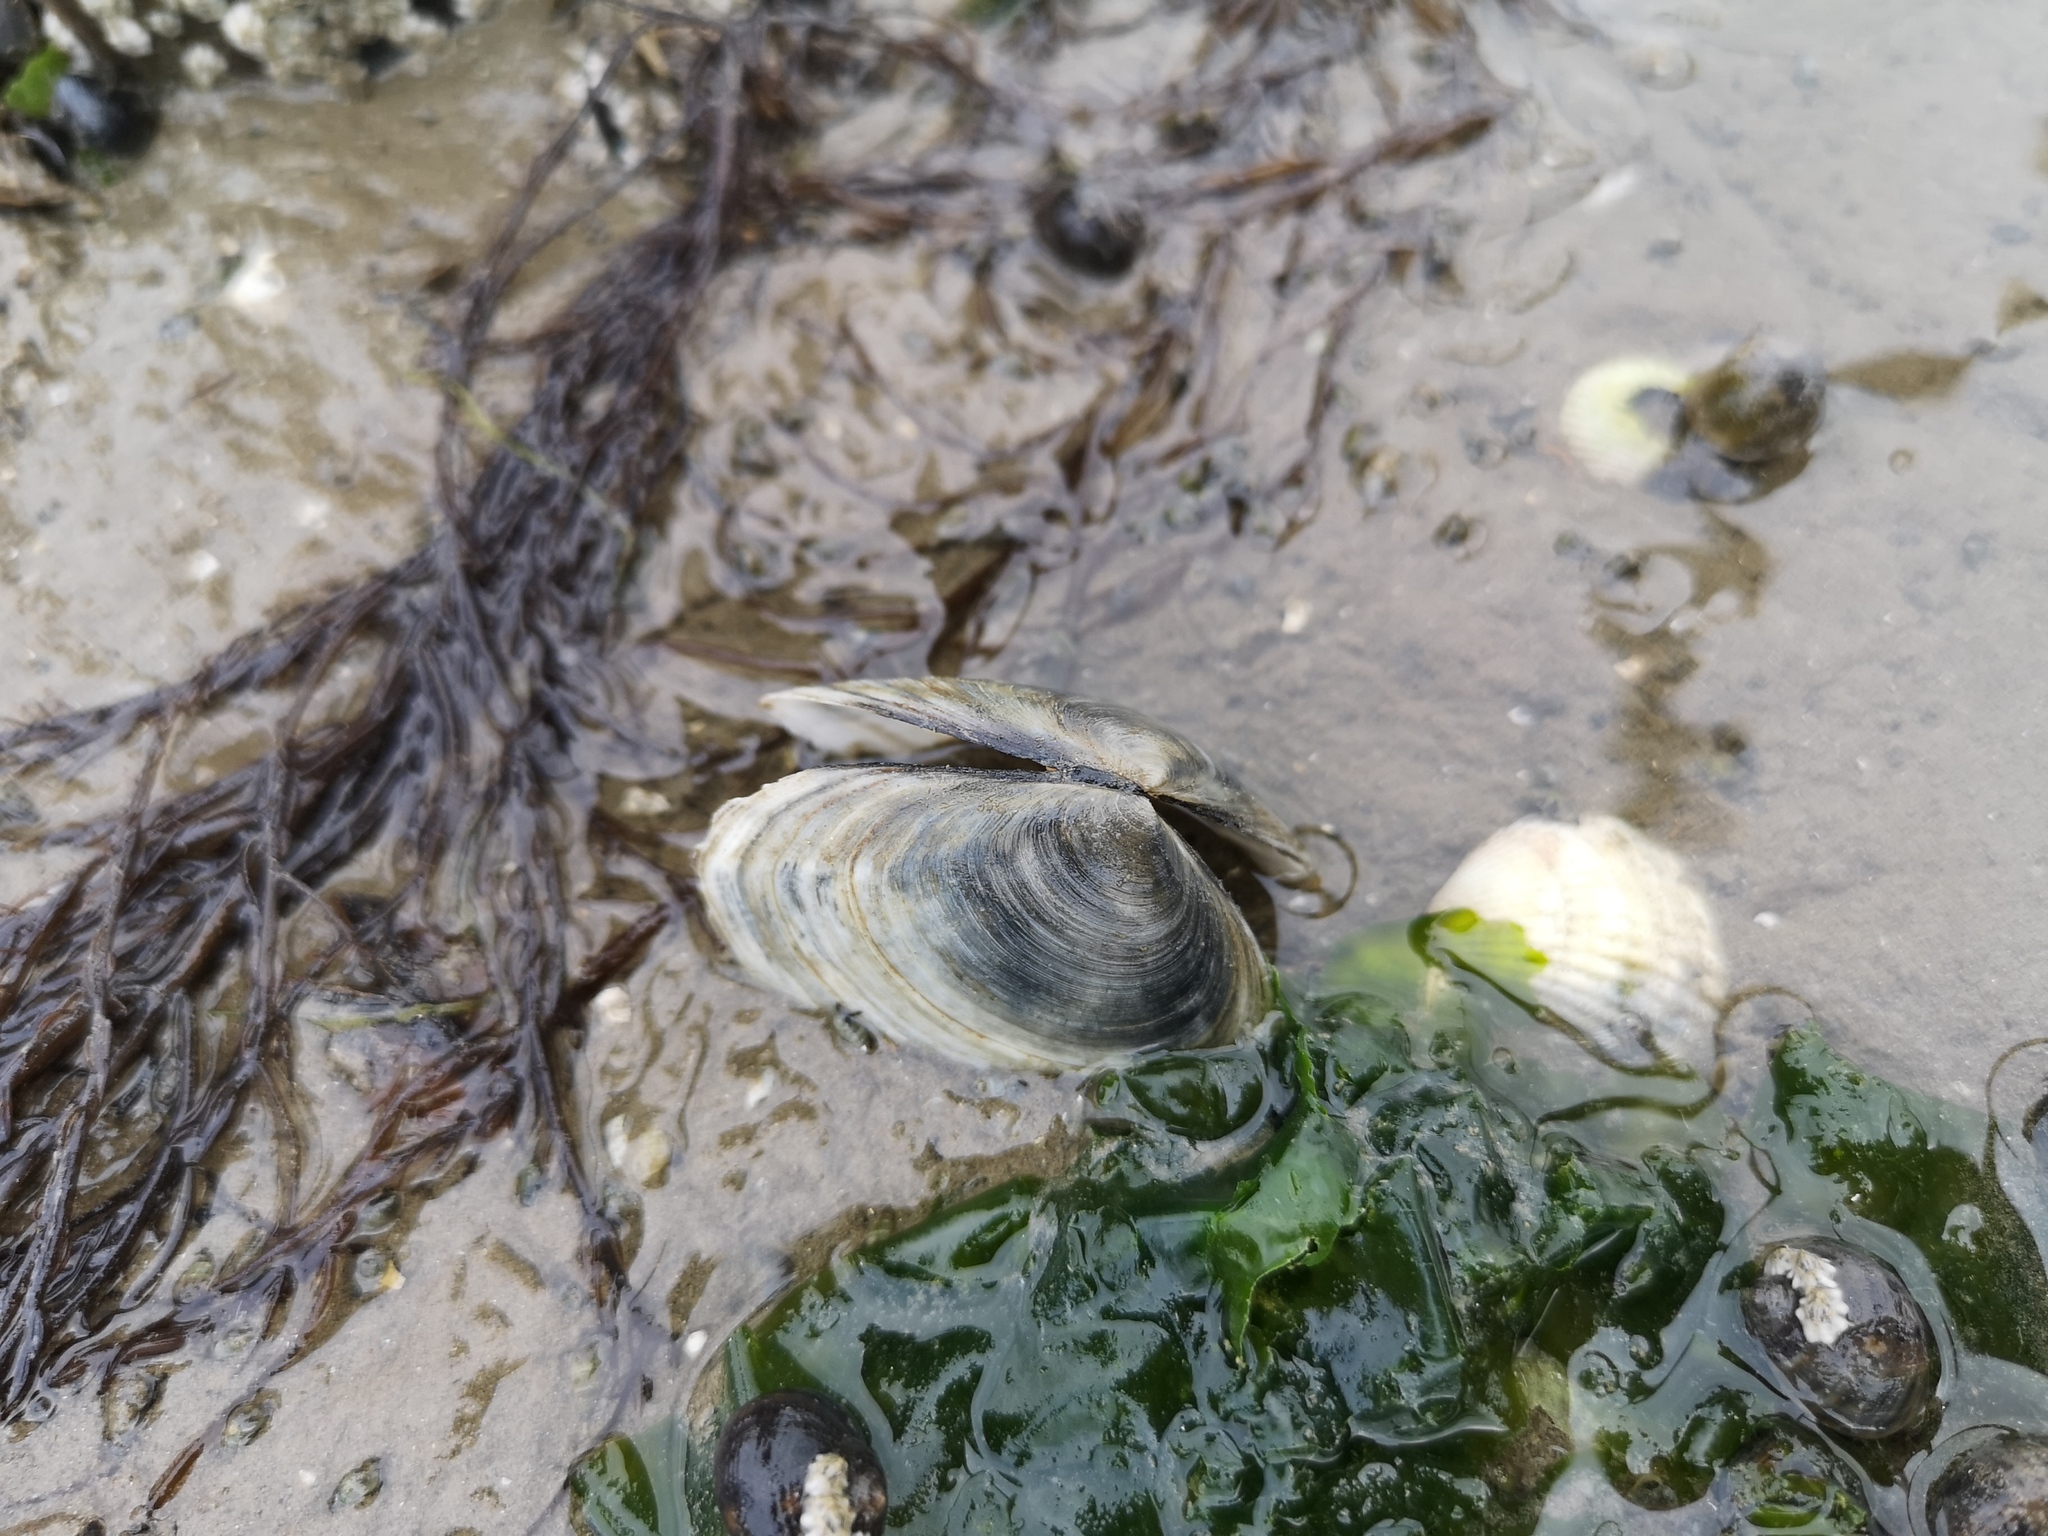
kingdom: Animalia
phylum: Mollusca
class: Bivalvia
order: Cardiida
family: Semelidae
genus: Scrobicularia
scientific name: Scrobicularia plana
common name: Peppery furrow shell
